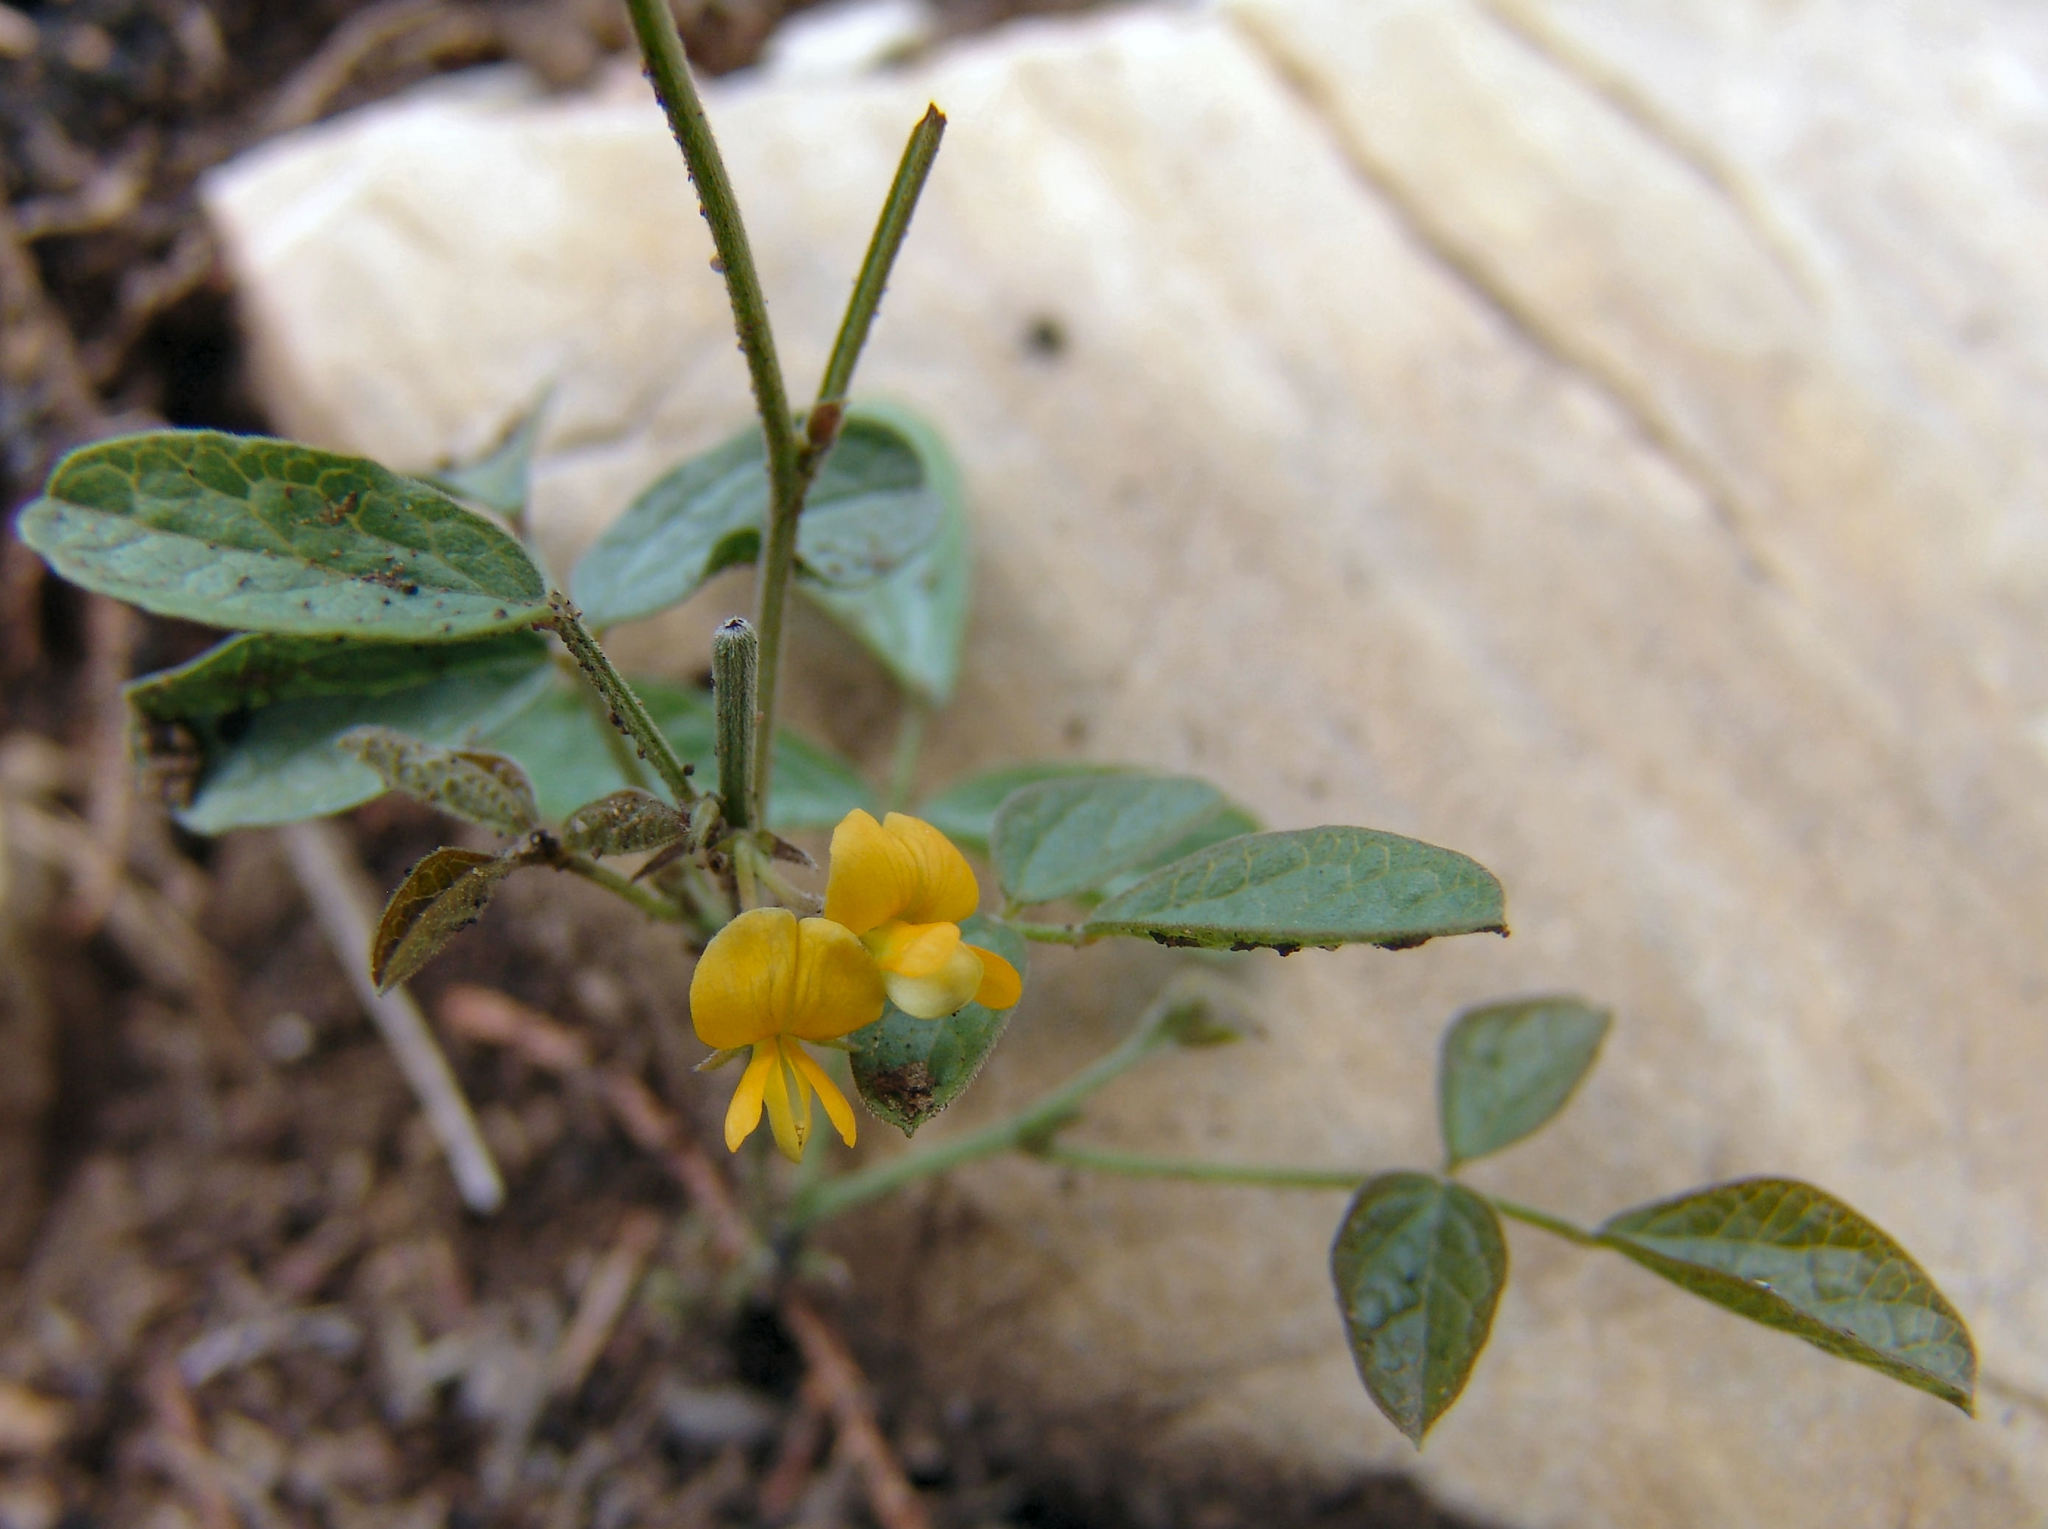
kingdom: Plantae
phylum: Tracheophyta
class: Magnoliopsida
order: Fabales
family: Fabaceae
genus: Rhynchosia
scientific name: Rhynchosia senna
